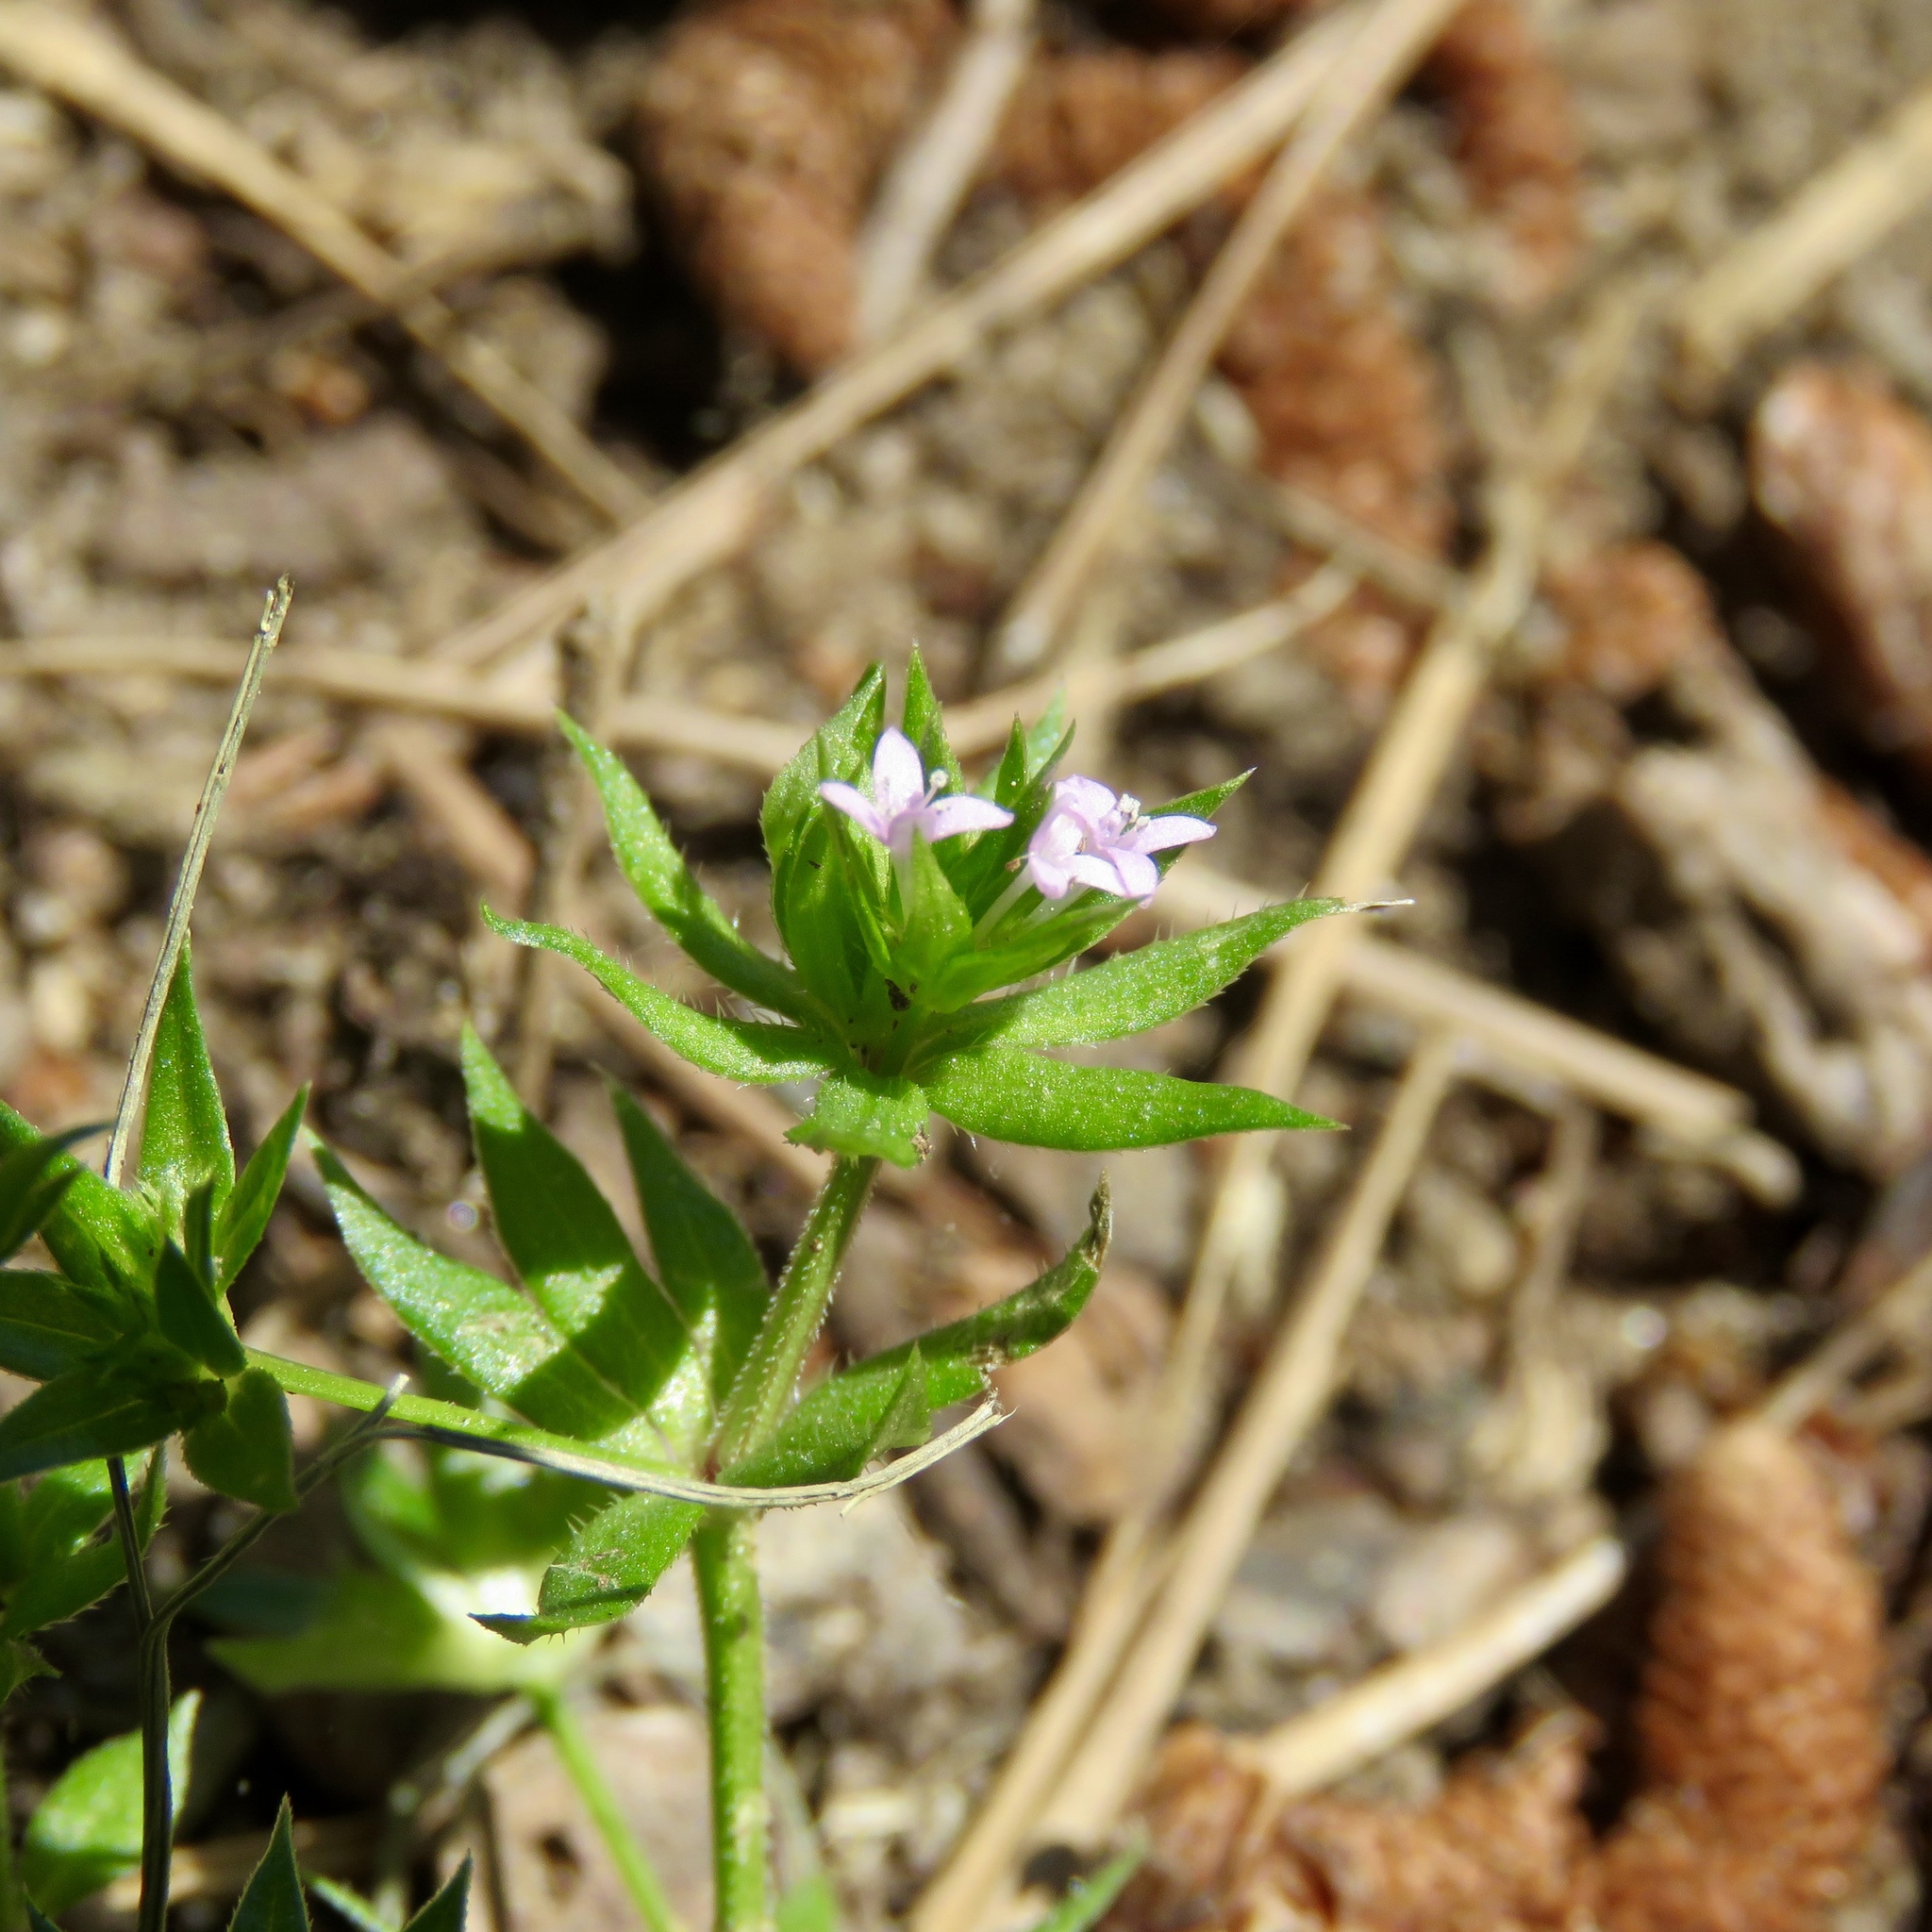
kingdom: Plantae
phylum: Tracheophyta
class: Magnoliopsida
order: Gentianales
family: Rubiaceae
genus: Sherardia
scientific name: Sherardia arvensis
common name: Field madder
